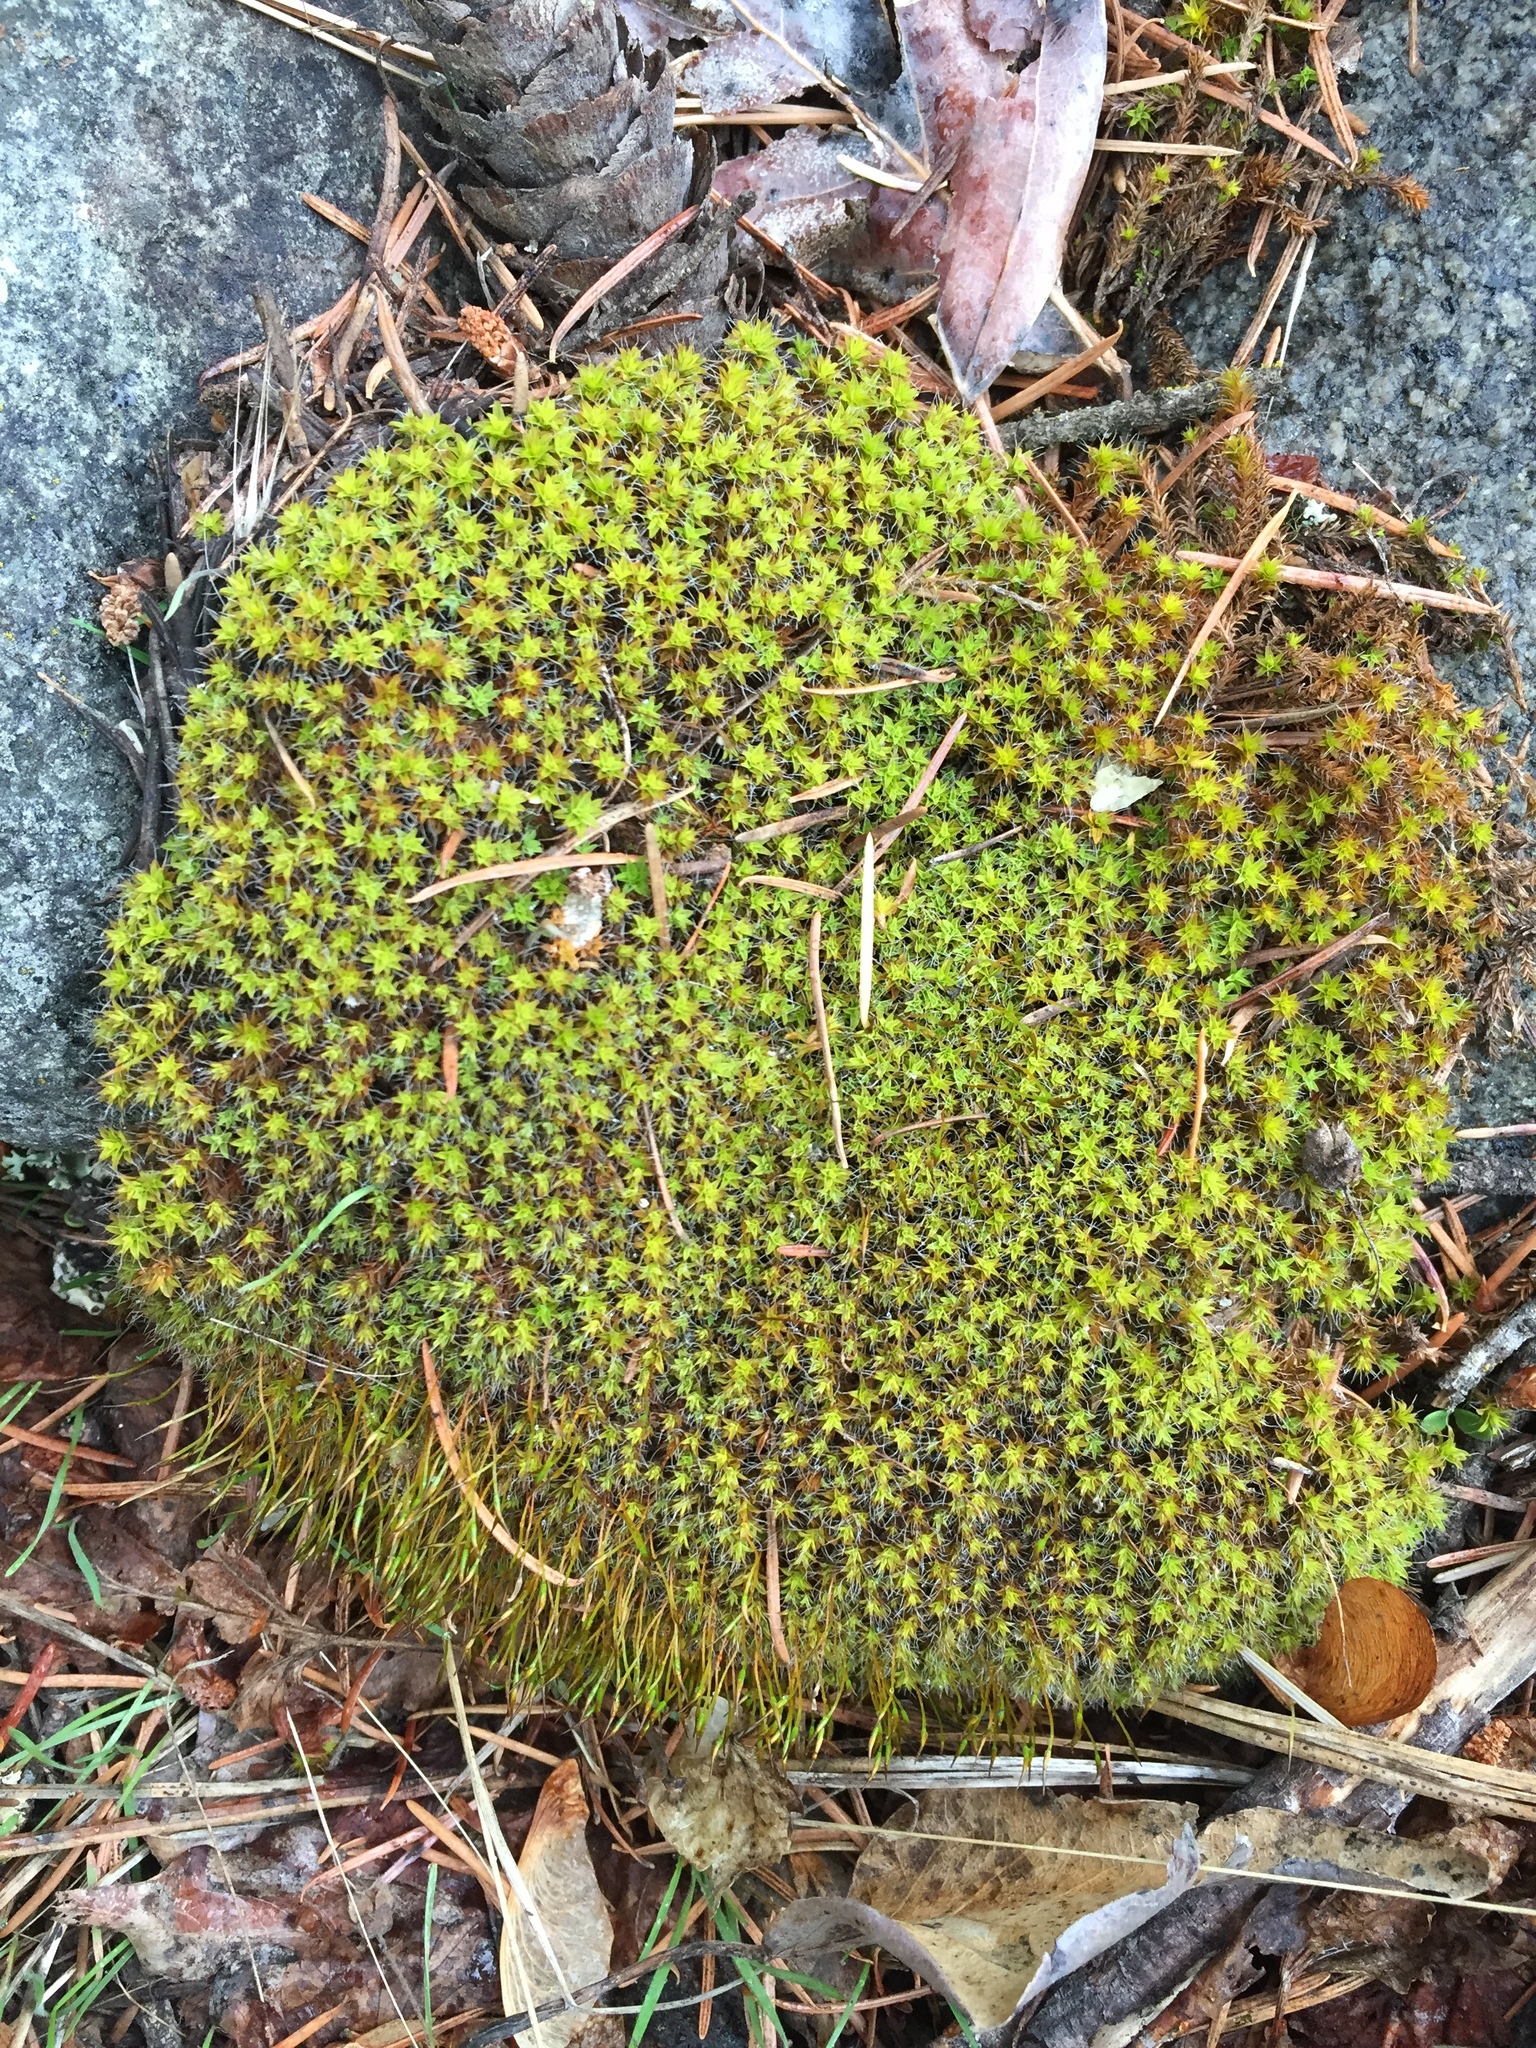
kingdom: Plantae
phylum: Bryophyta
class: Bryopsida
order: Pottiales
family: Pottiaceae
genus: Syntrichia
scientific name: Syntrichia ruralis
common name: Sidewalk screw moss
